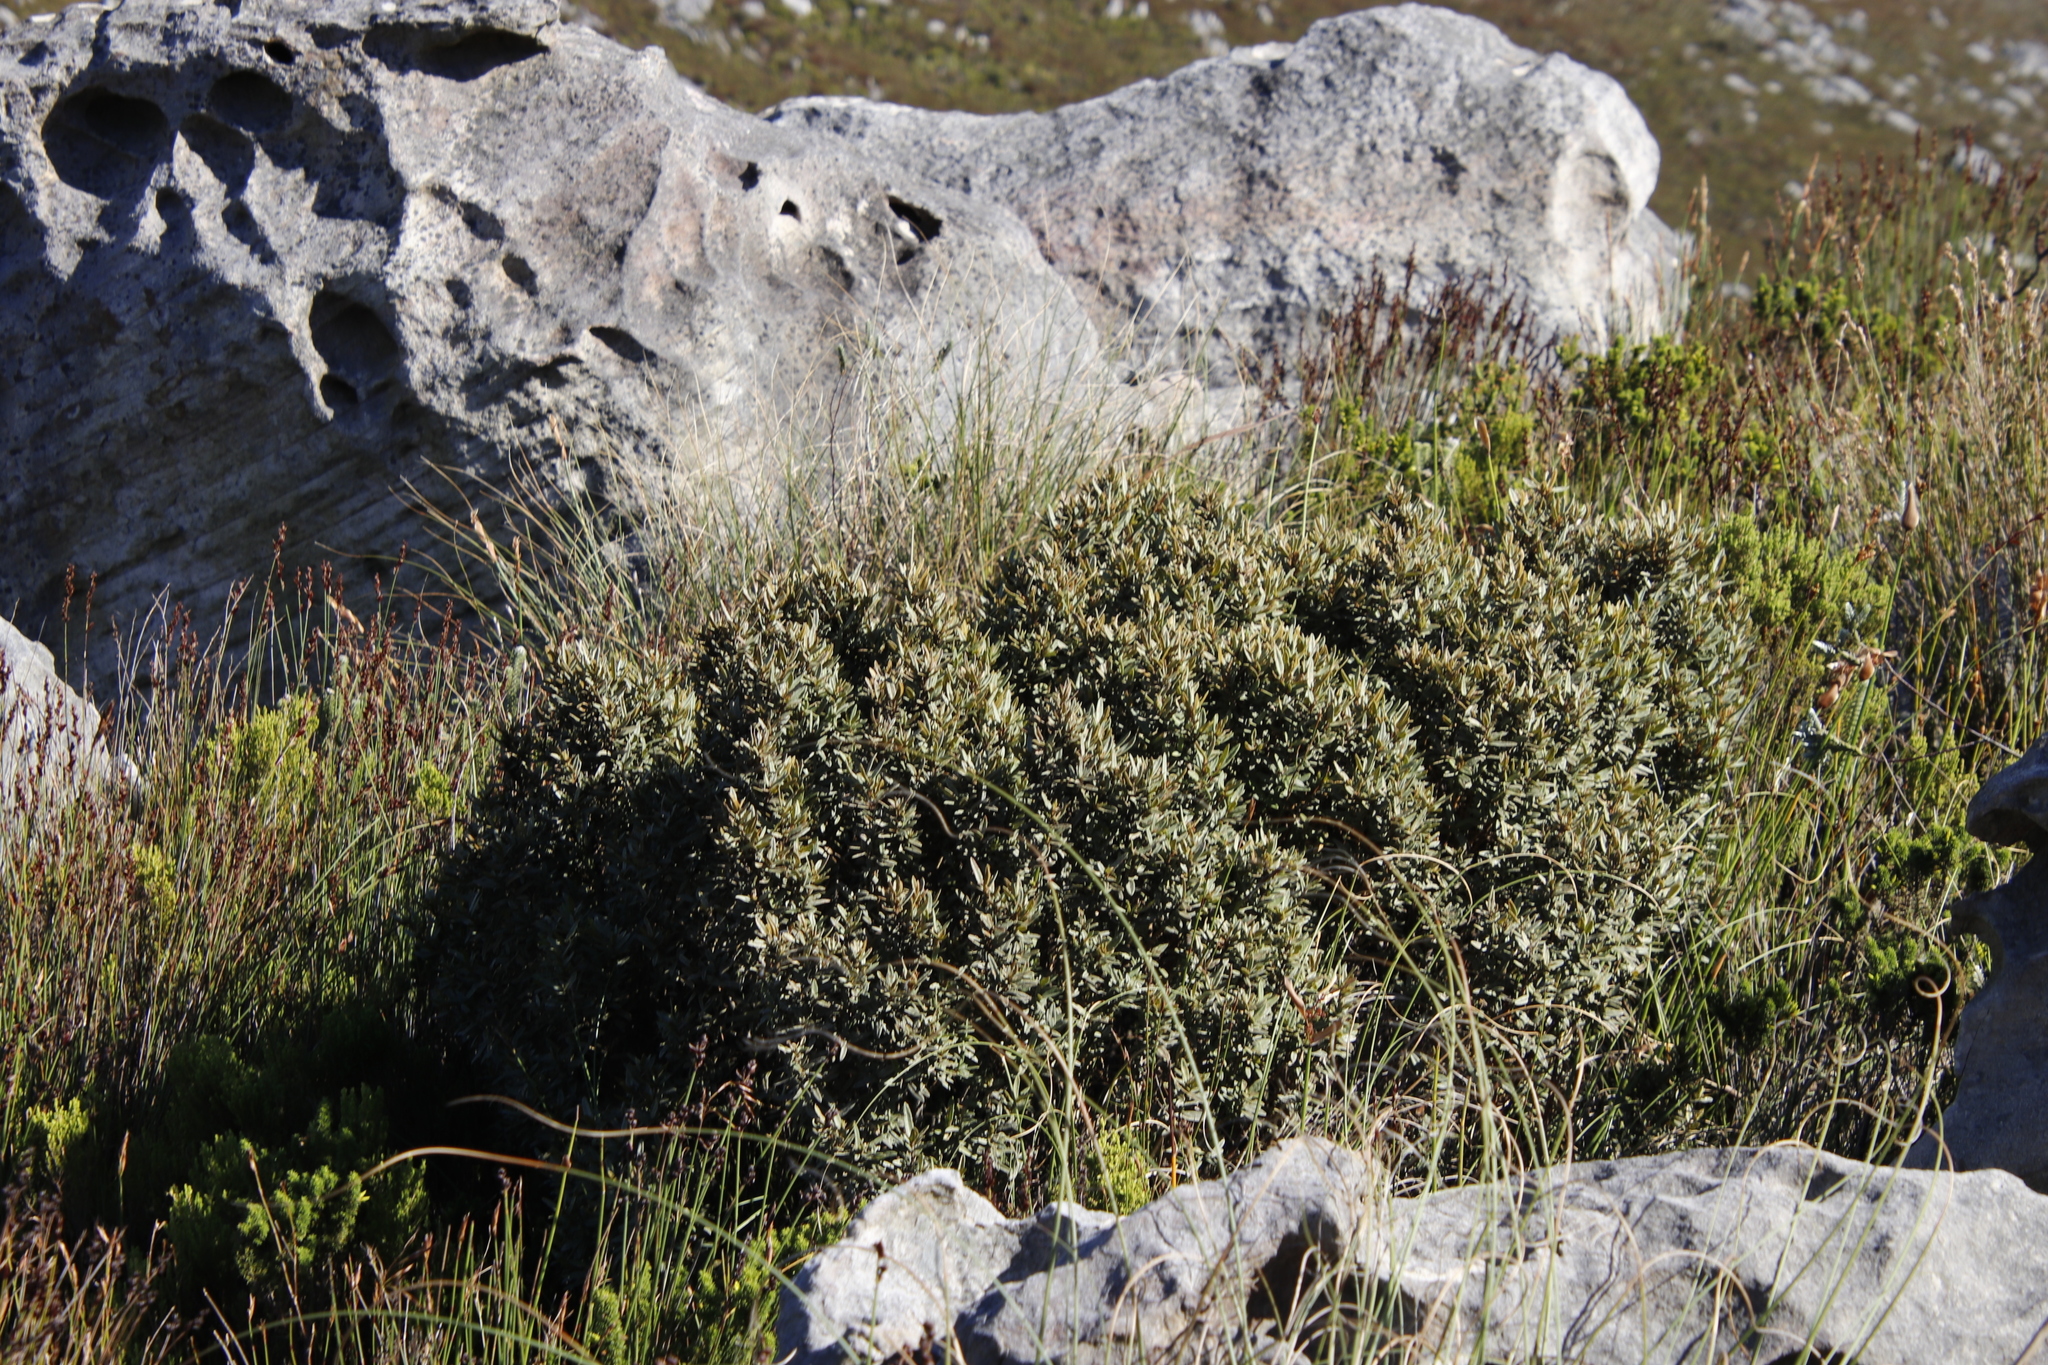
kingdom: Plantae
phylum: Tracheophyta
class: Magnoliopsida
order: Cornales
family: Grubbiaceae
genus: Grubbia
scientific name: Grubbia tomentosa
